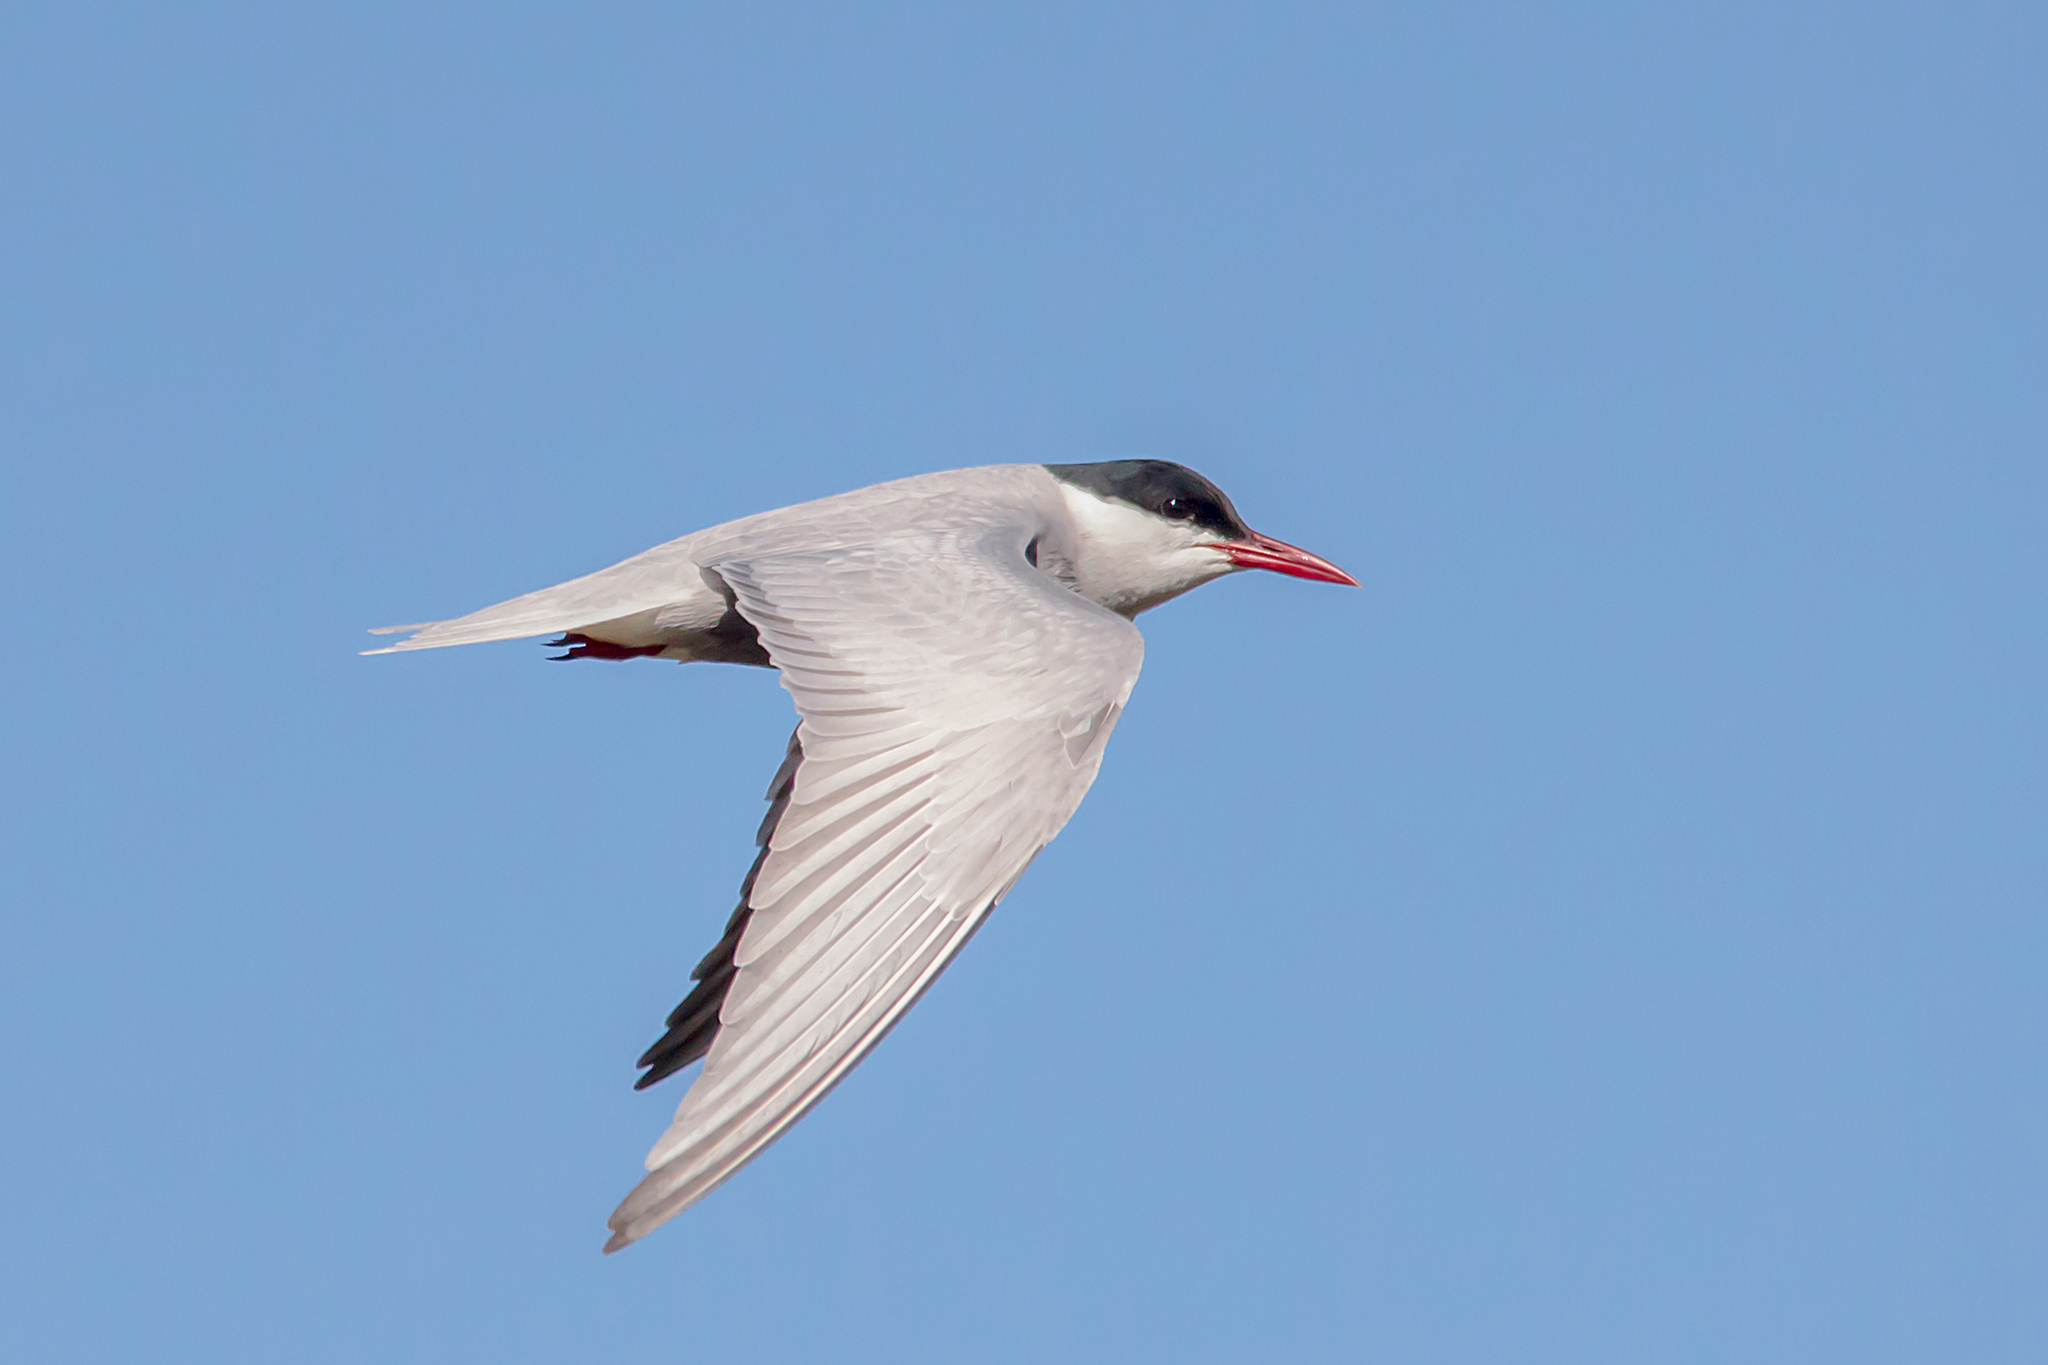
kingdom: Animalia
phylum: Chordata
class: Aves
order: Charadriiformes
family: Laridae
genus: Chlidonias
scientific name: Chlidonias hybrida
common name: Whiskered tern
